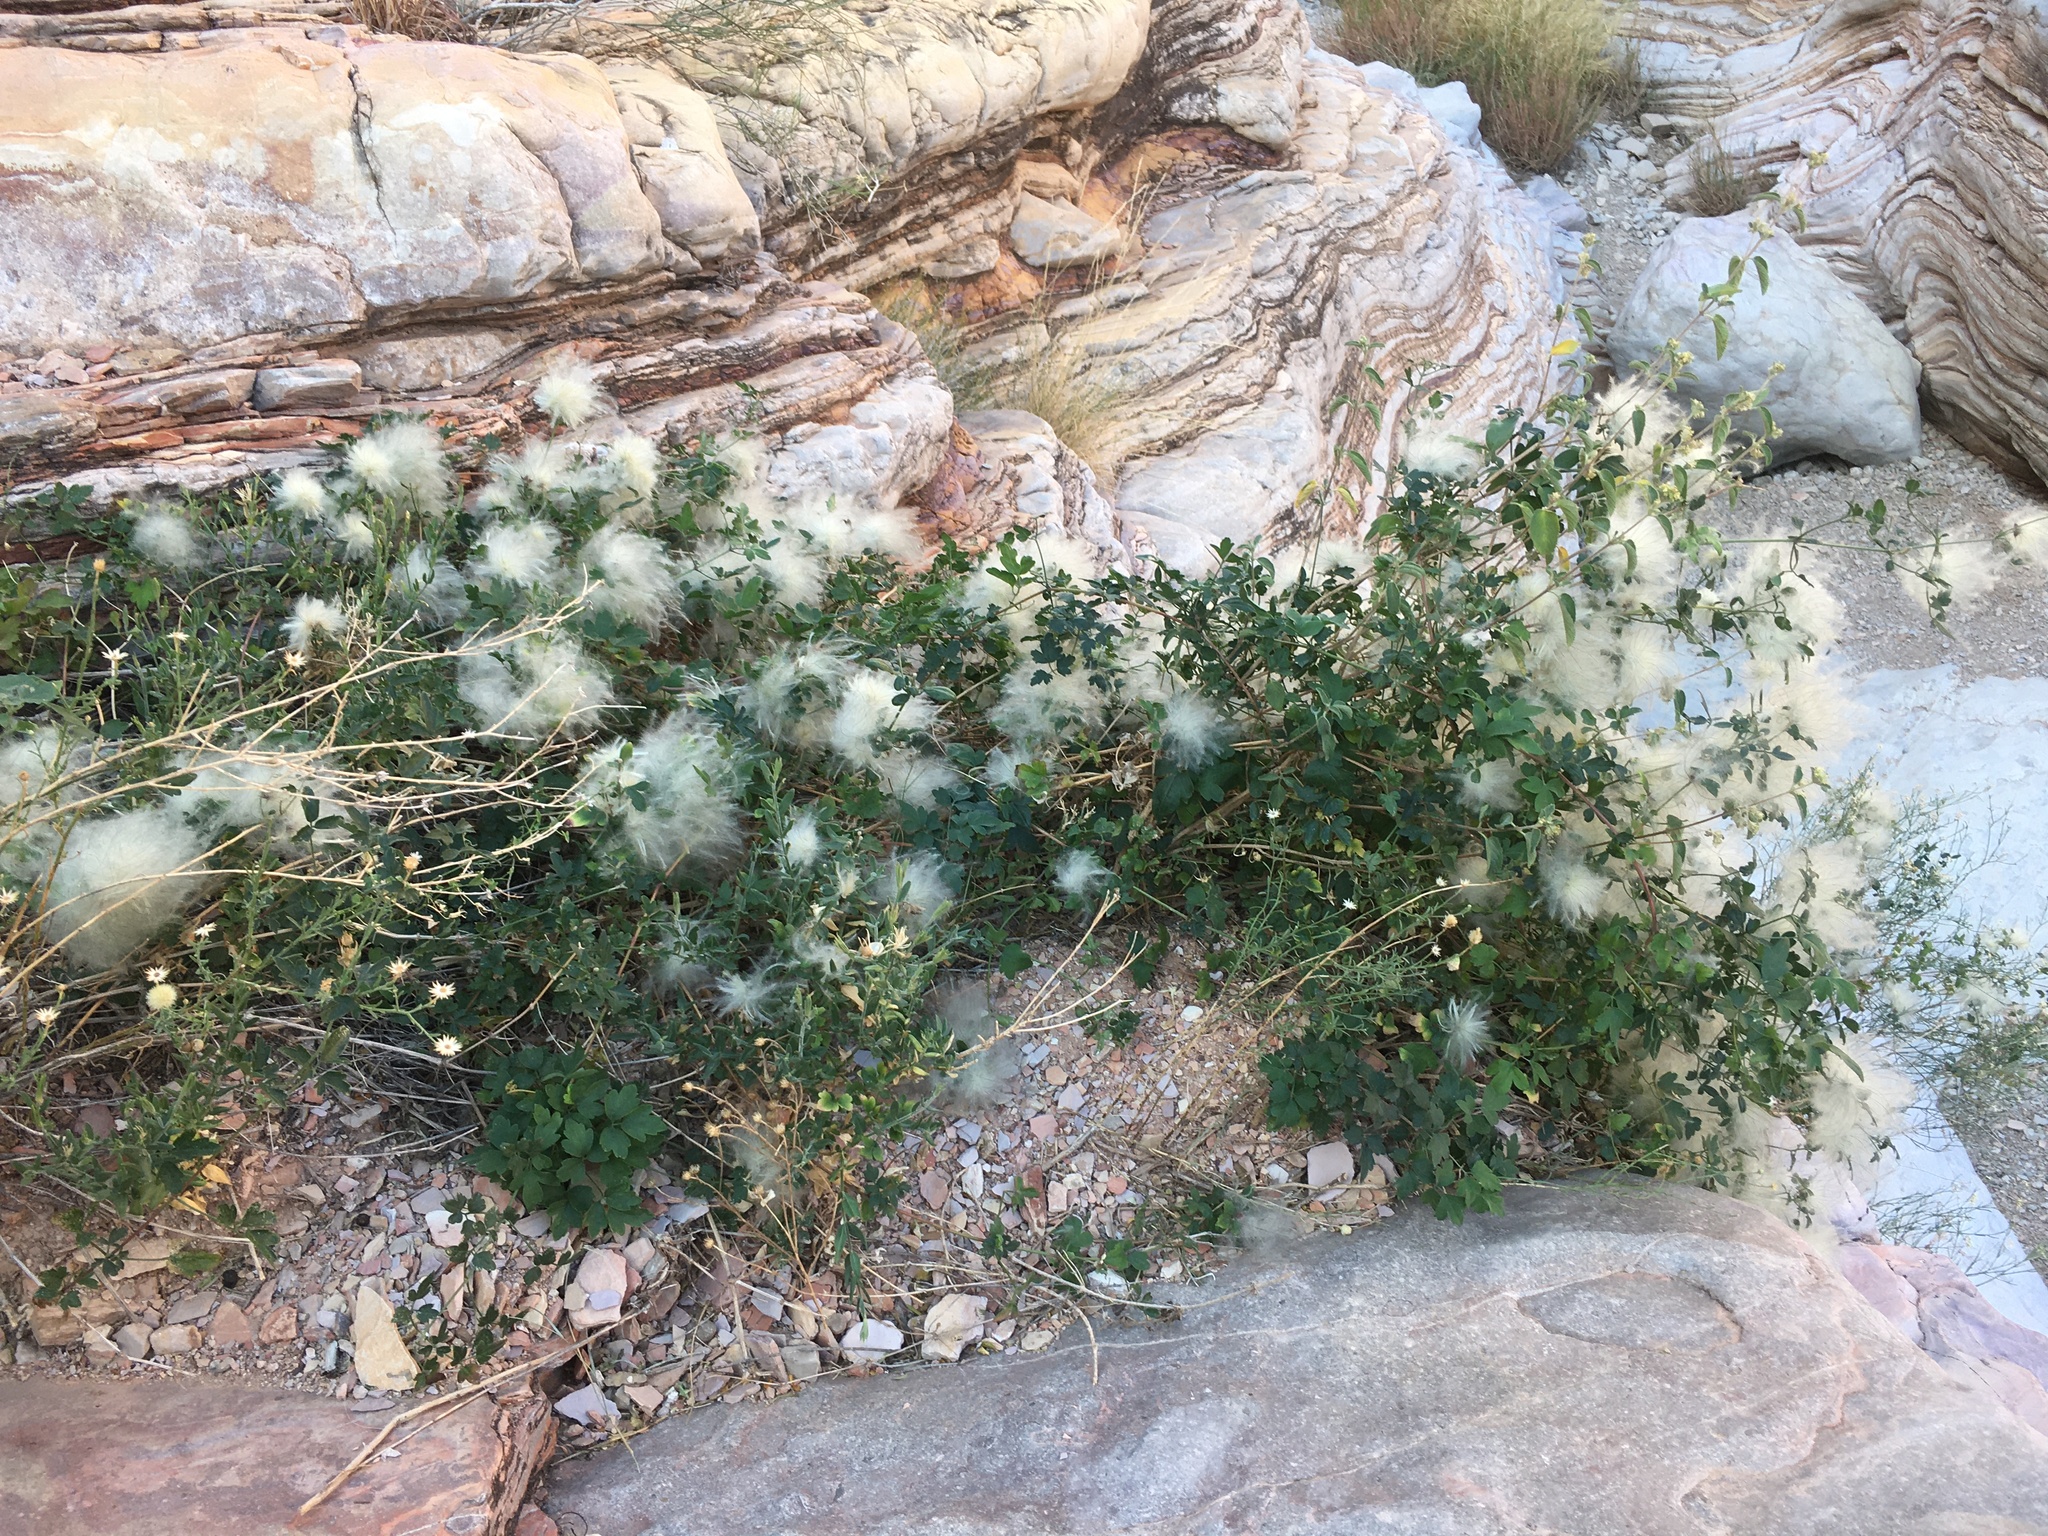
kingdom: Plantae
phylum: Tracheophyta
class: Magnoliopsida
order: Ranunculales
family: Ranunculaceae
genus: Clematis
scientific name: Clematis drummondii
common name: Texas virgin's bower
